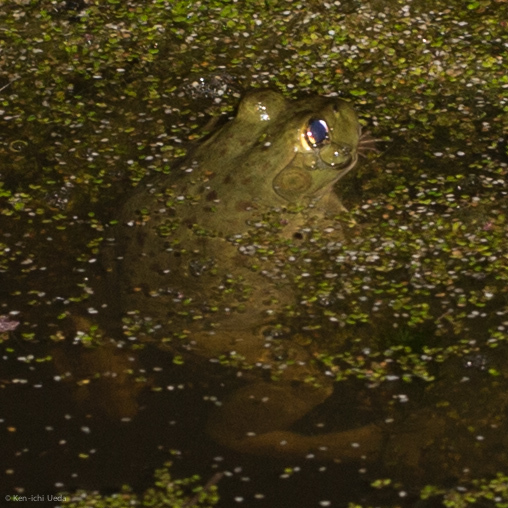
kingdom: Animalia
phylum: Chordata
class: Amphibia
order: Anura
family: Ranidae
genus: Lithobates
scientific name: Lithobates catesbeianus
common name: American bullfrog
